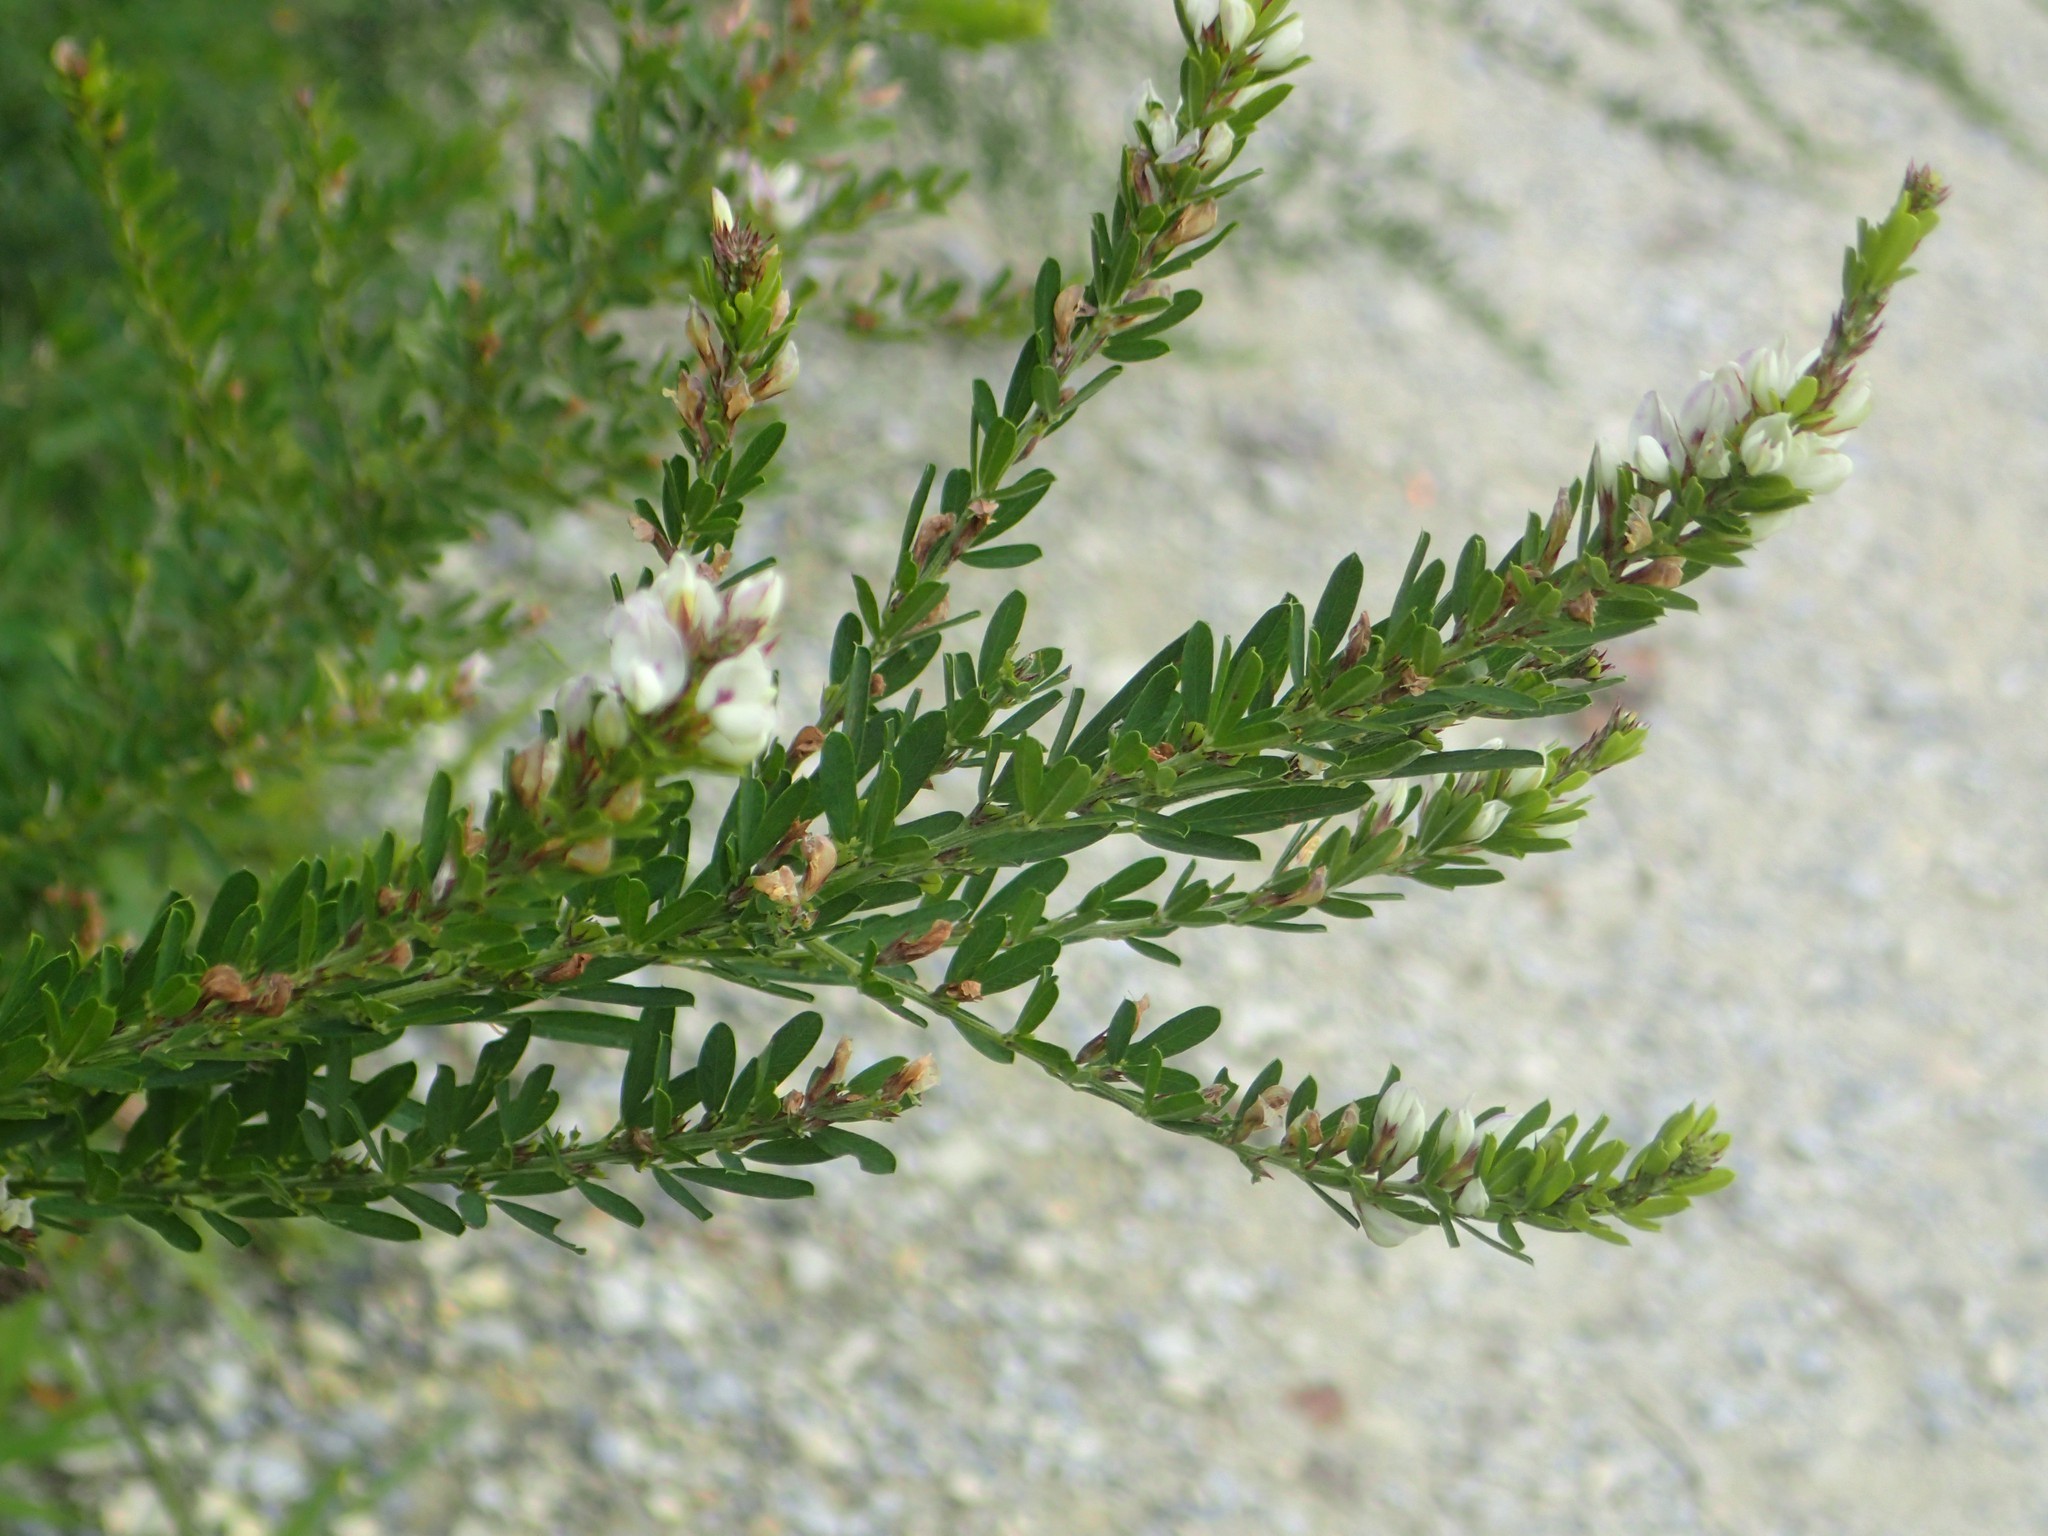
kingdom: Plantae
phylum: Tracheophyta
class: Magnoliopsida
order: Fabales
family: Fabaceae
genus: Lespedeza
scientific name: Lespedeza cuneata
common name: Chinese bush-clover
